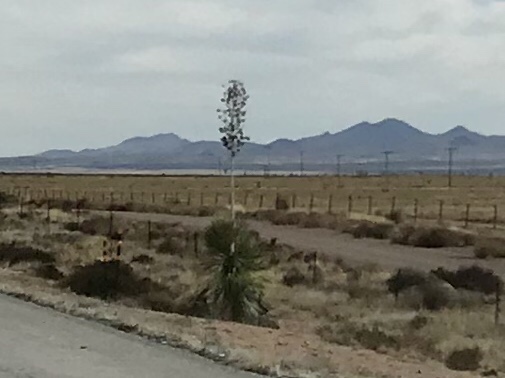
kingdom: Plantae
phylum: Tracheophyta
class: Liliopsida
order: Asparagales
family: Asparagaceae
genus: Yucca
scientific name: Yucca elata
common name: Palmella
